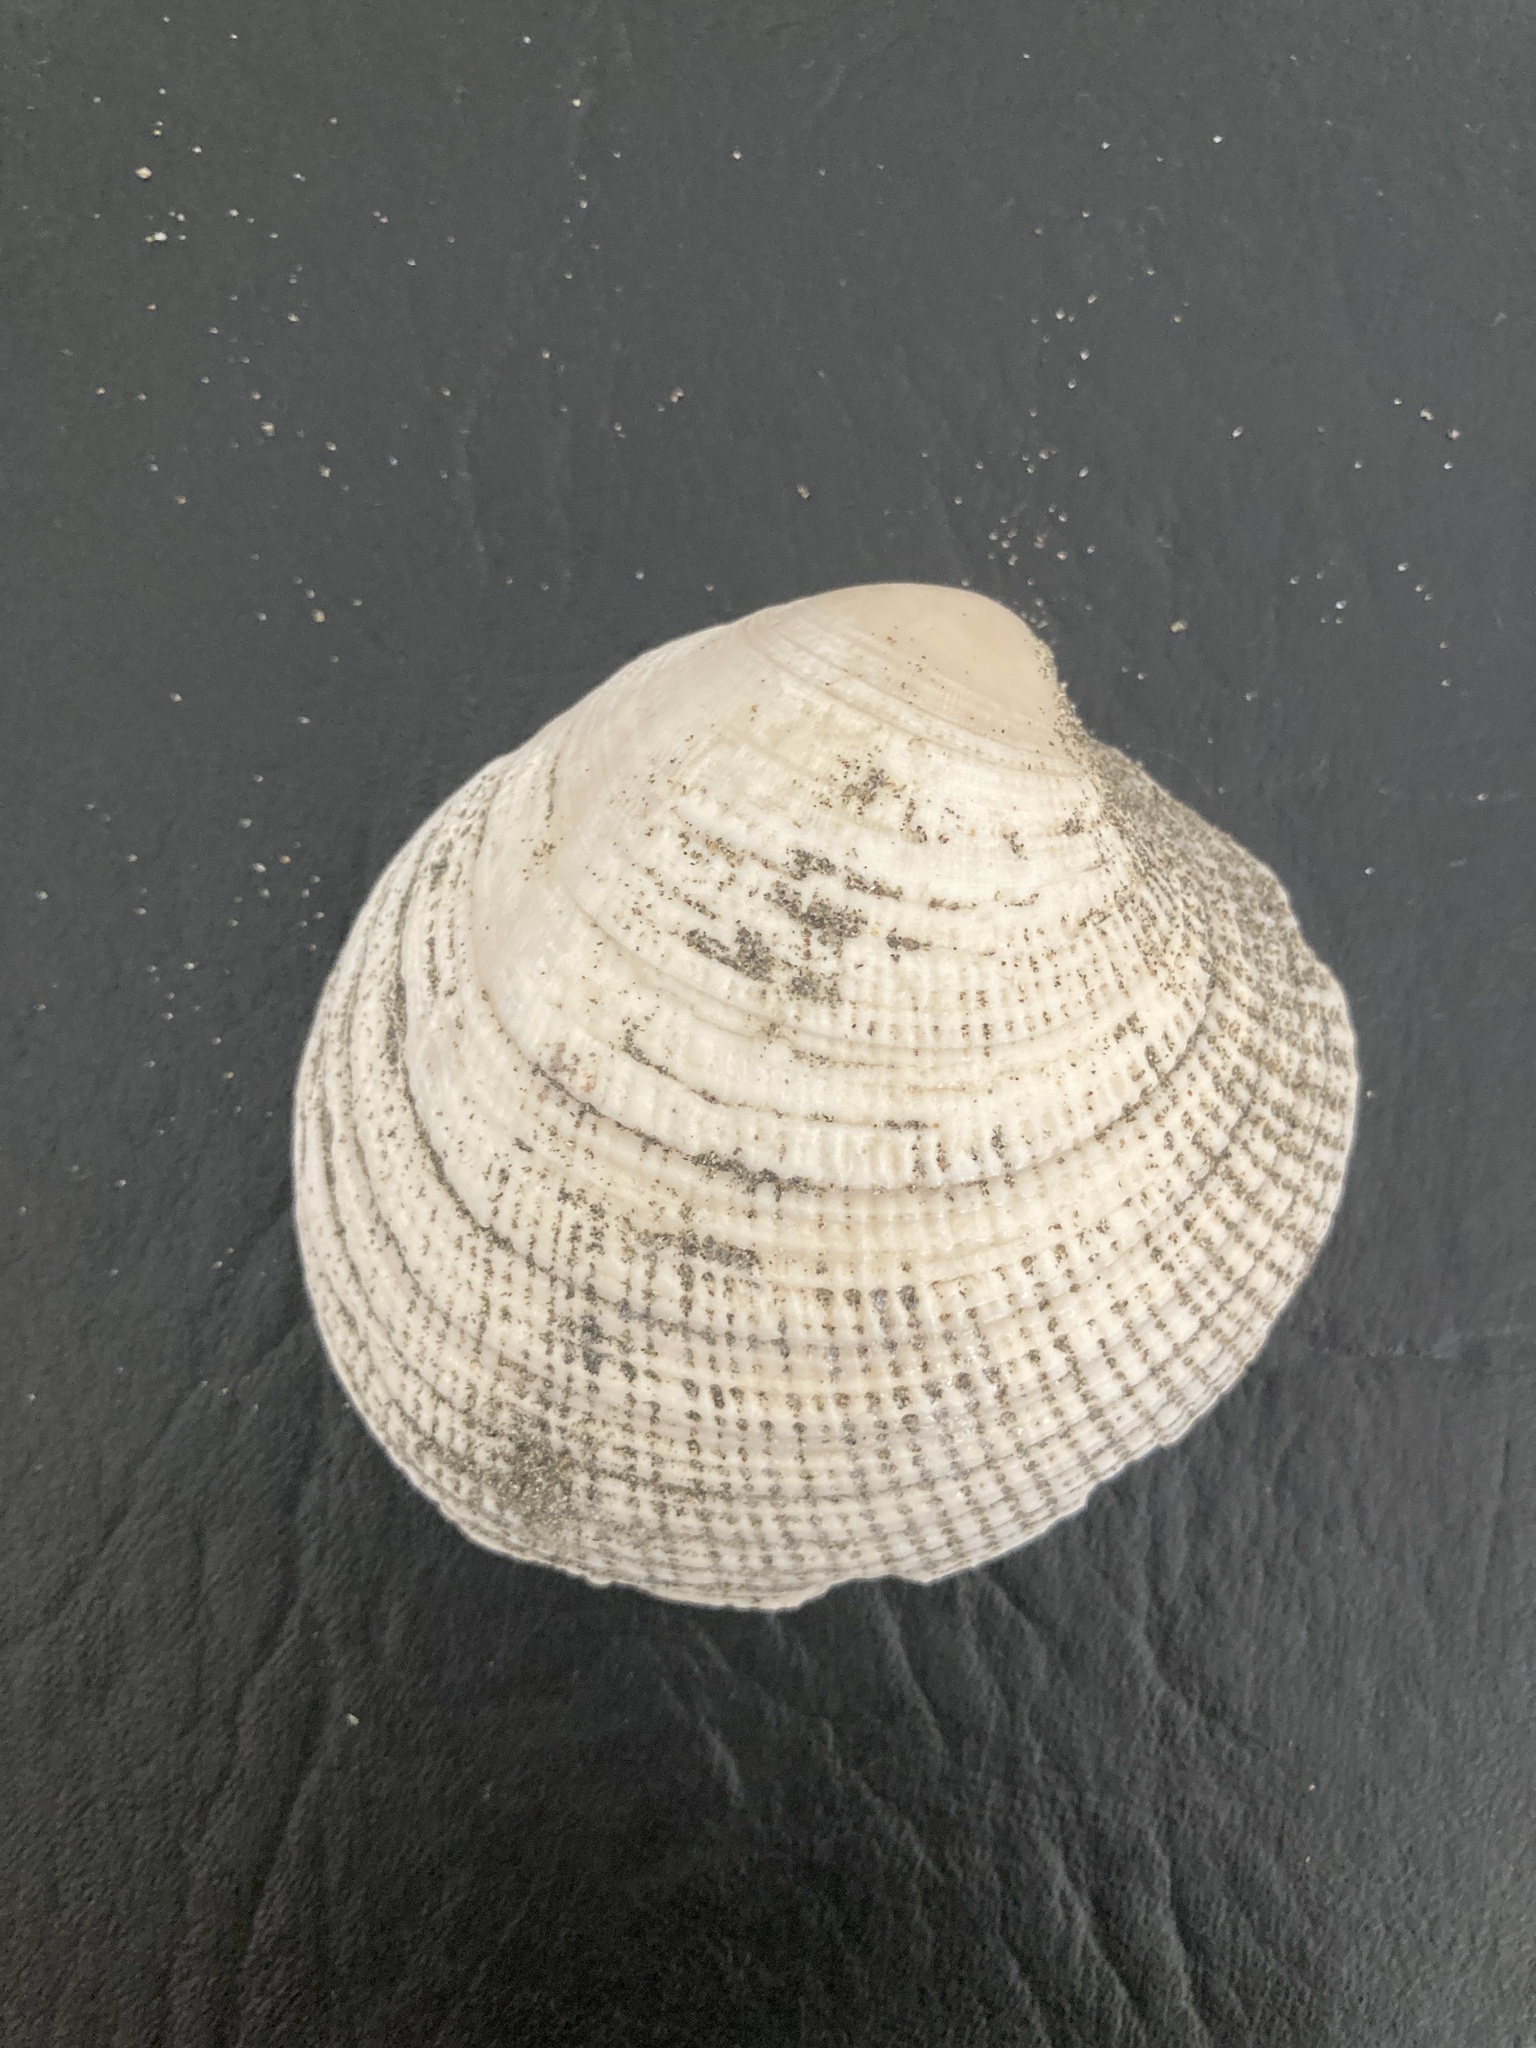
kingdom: Animalia
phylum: Mollusca
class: Bivalvia
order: Venerida
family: Veneridae
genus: Ameghinomya
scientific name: Ameghinomya antiqua
